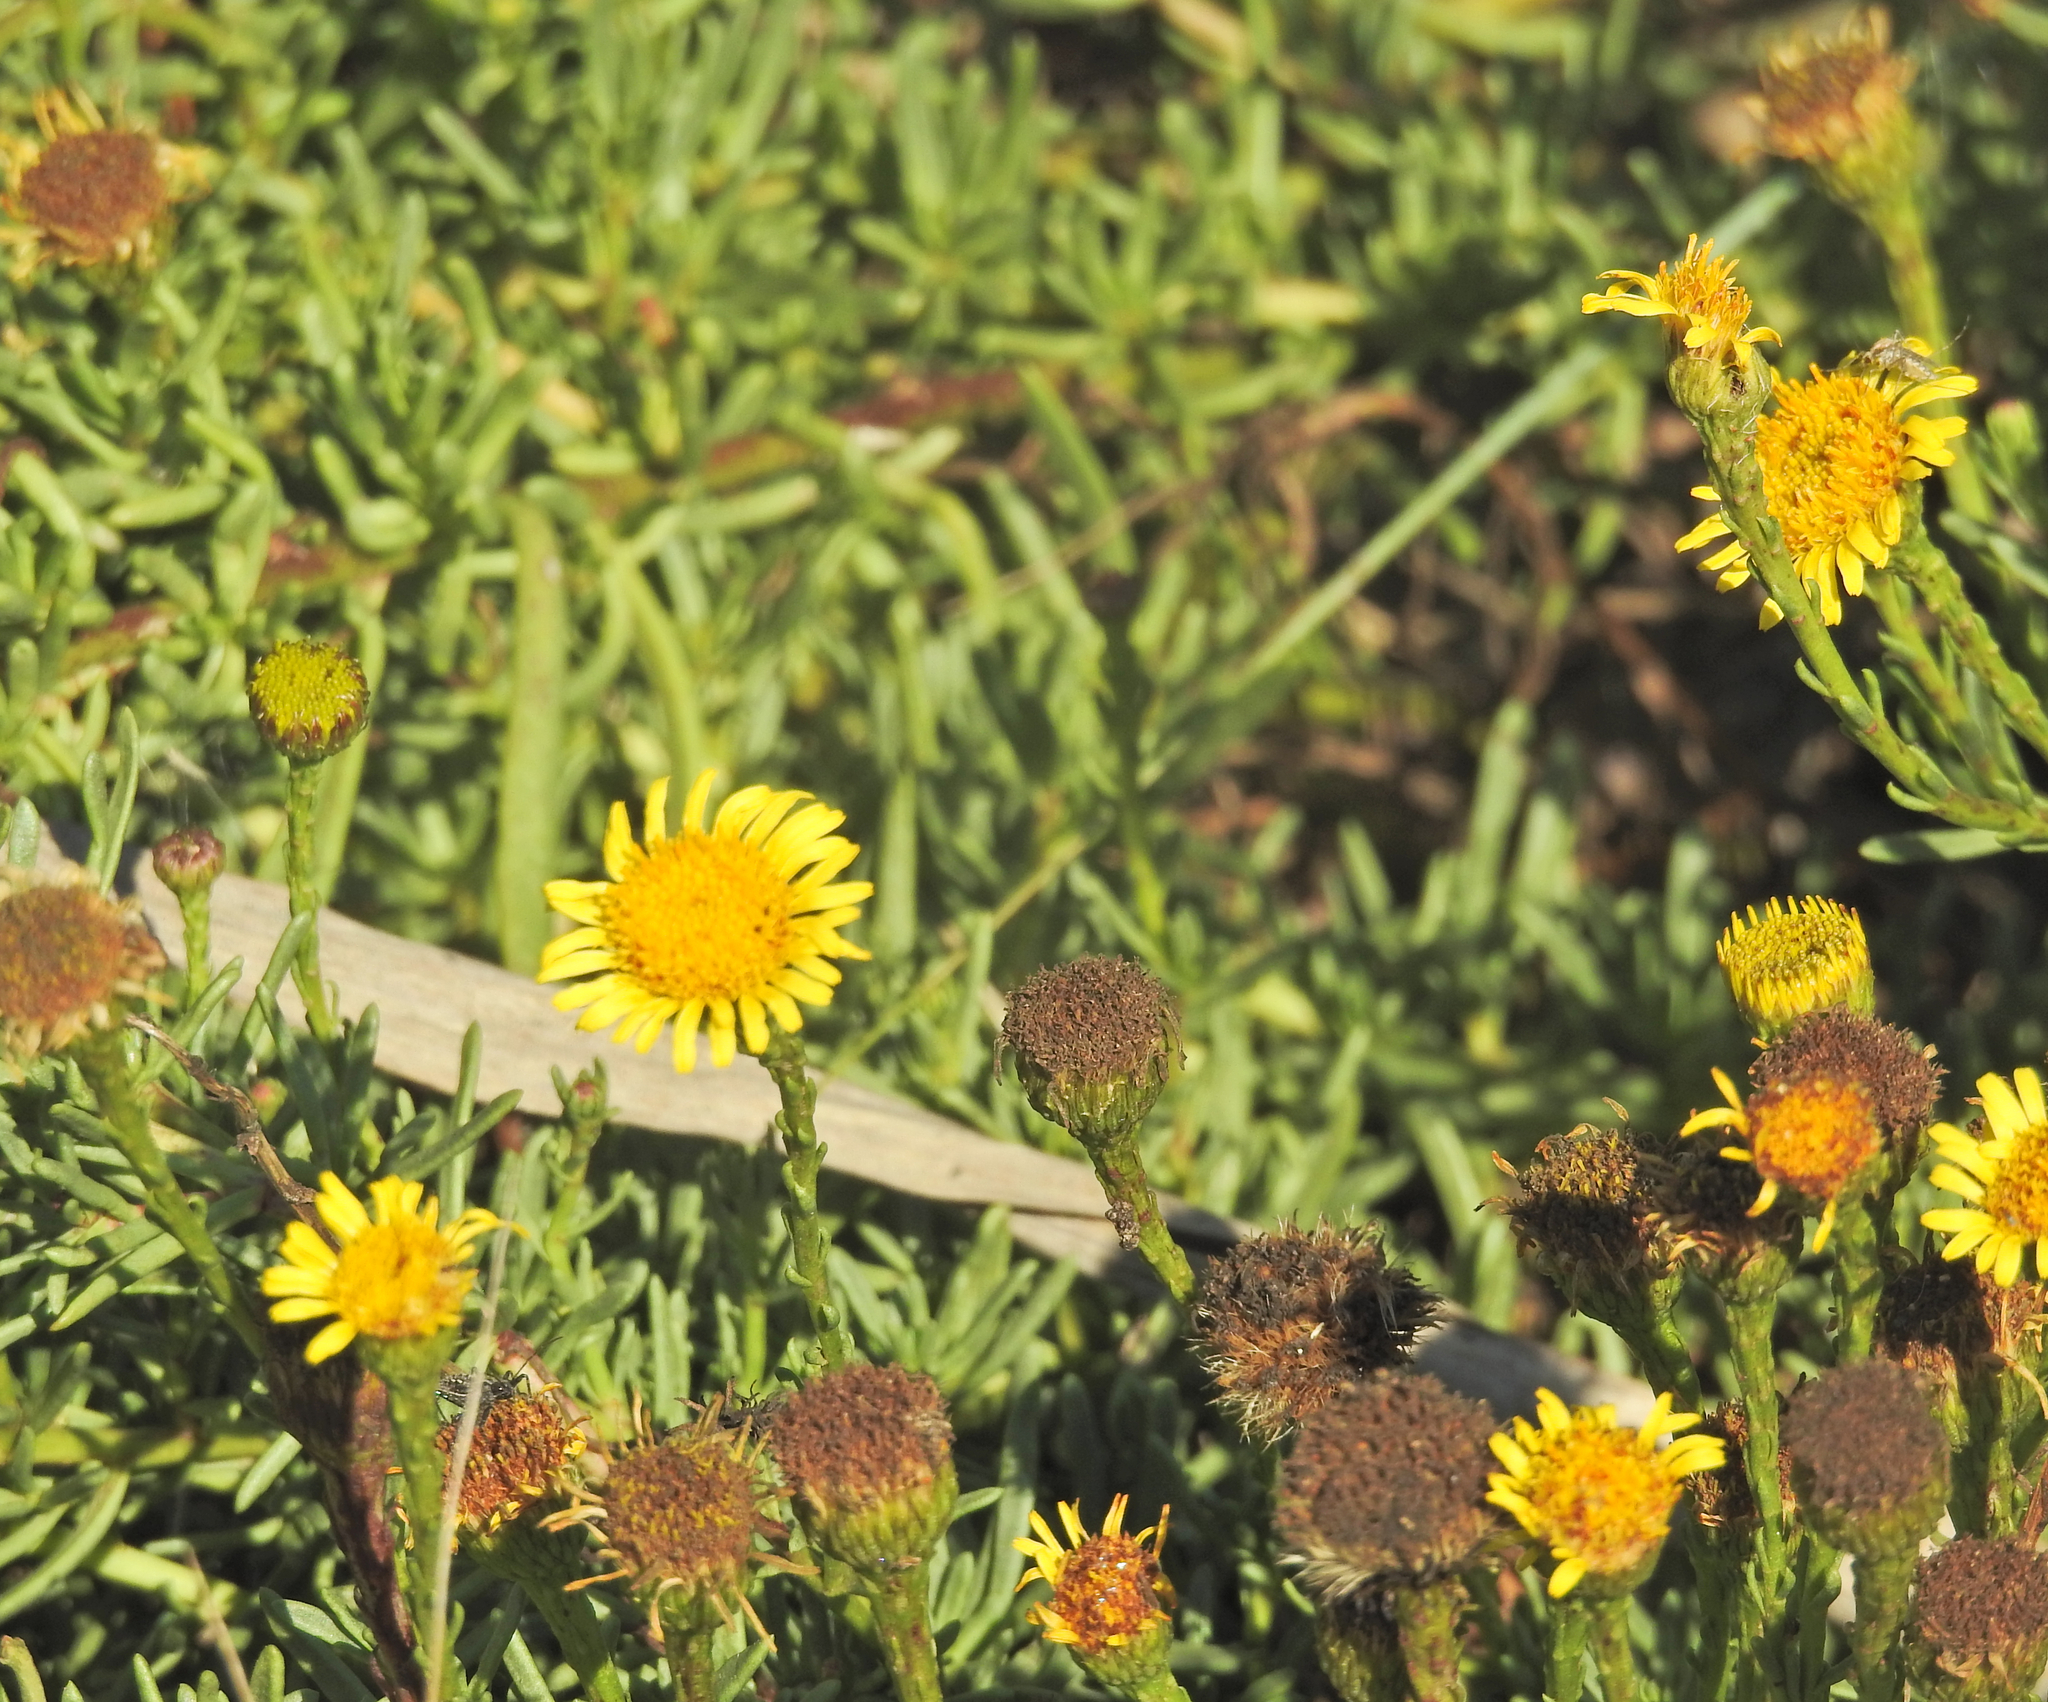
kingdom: Plantae
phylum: Tracheophyta
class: Magnoliopsida
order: Asterales
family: Asteraceae
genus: Limbarda
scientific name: Limbarda crithmoides
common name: Golden samphire
